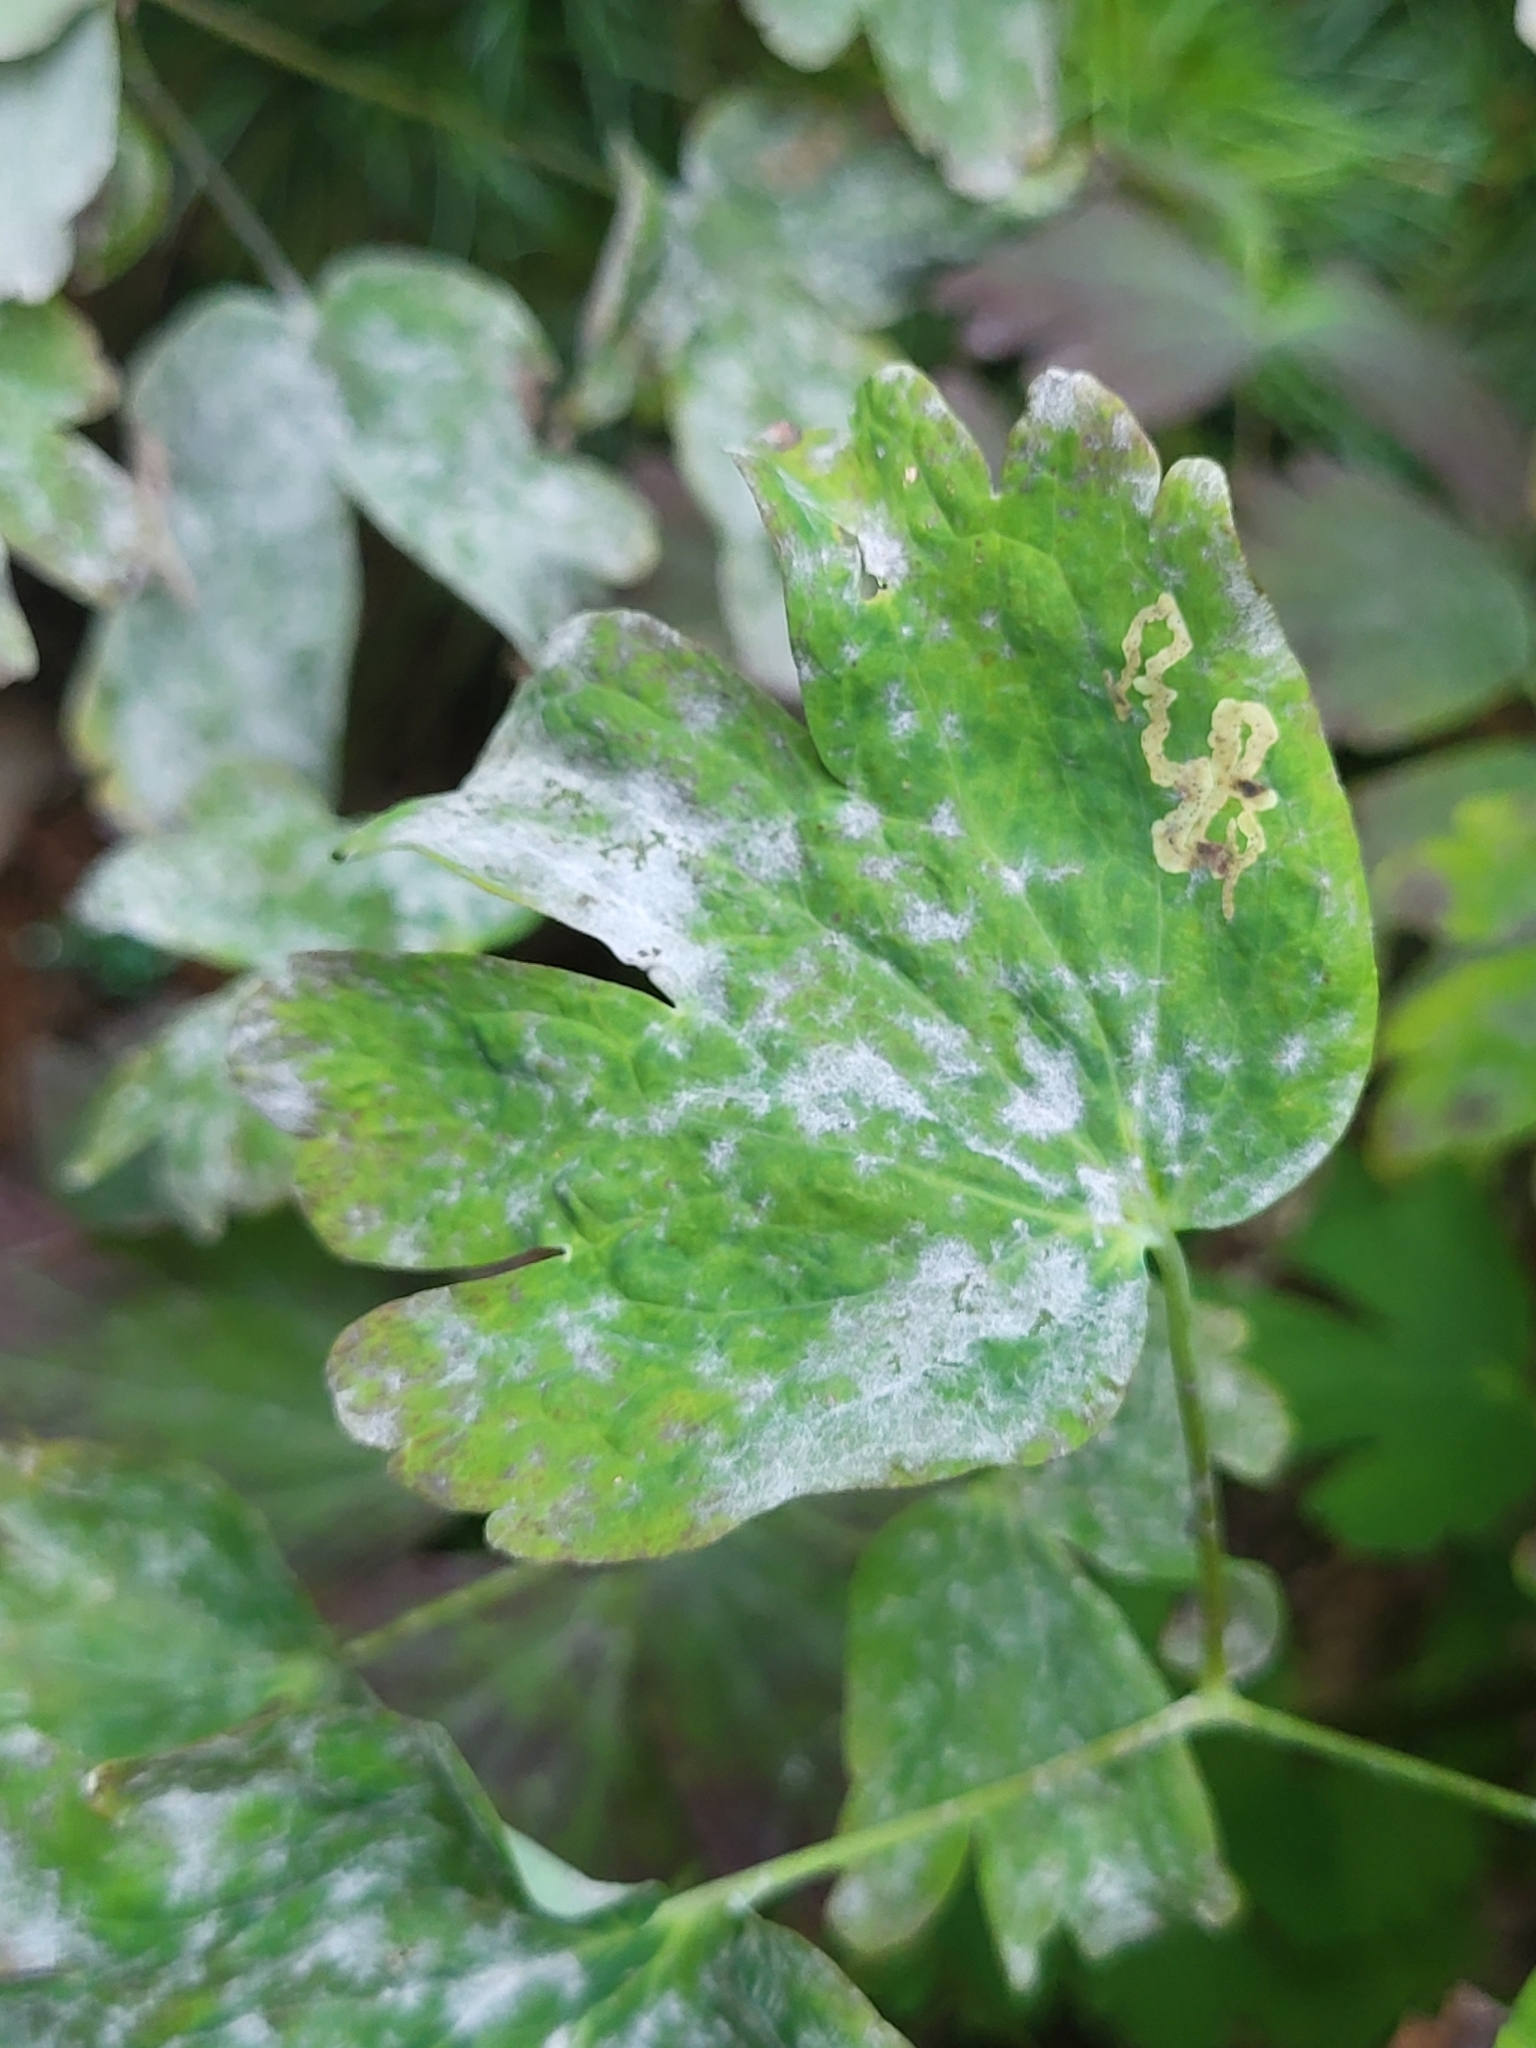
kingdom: Fungi
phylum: Ascomycota
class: Leotiomycetes
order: Helotiales
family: Erysiphaceae
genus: Erysiphe
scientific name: Erysiphe aquilegiae
